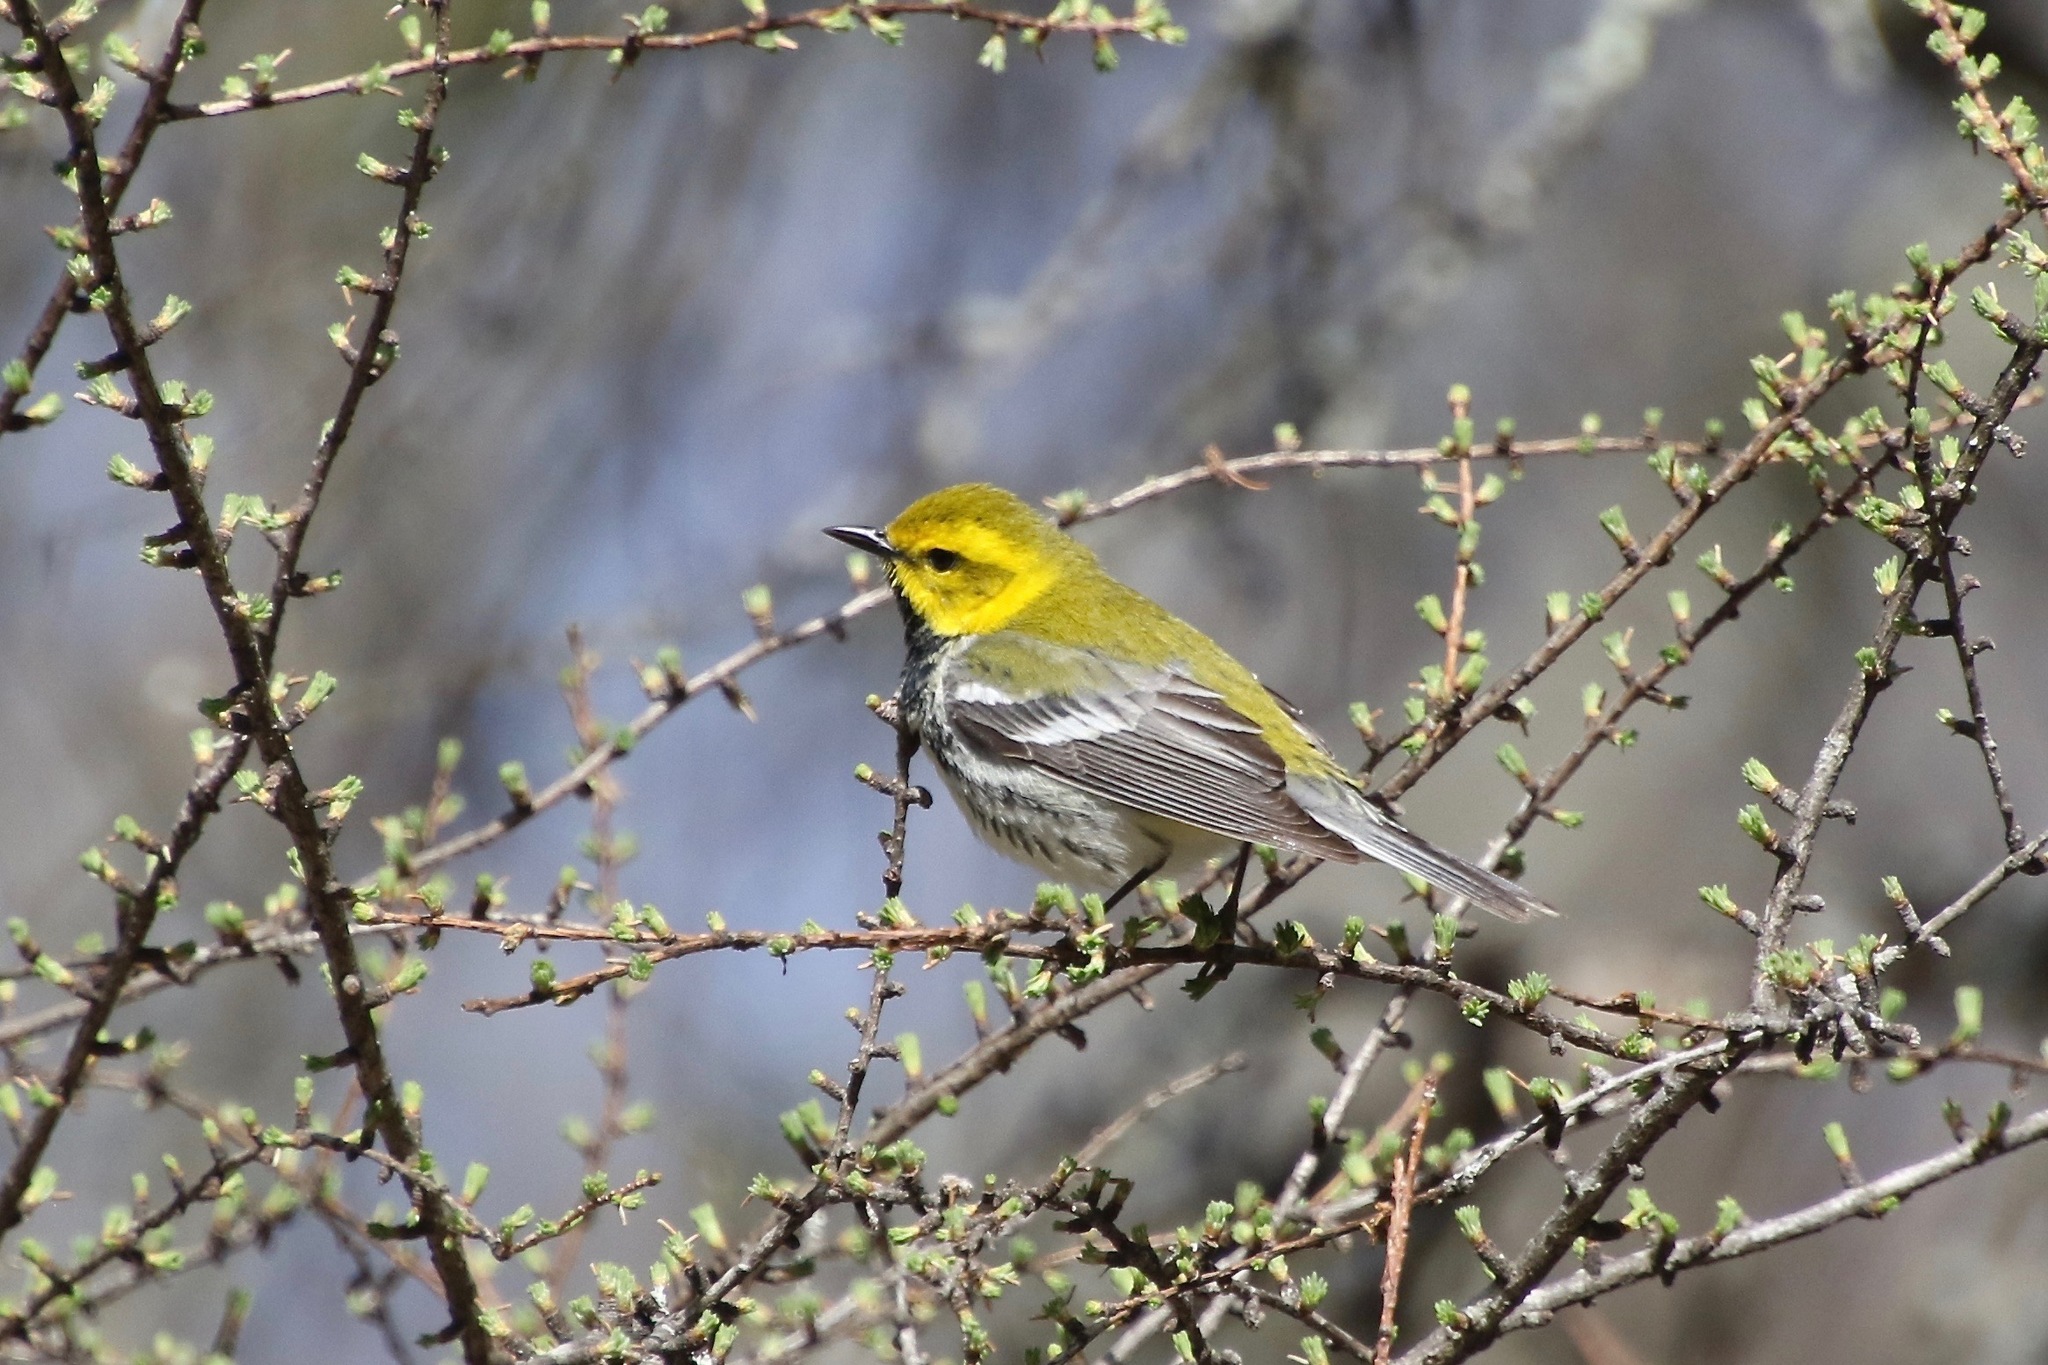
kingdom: Animalia
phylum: Chordata
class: Aves
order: Passeriformes
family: Parulidae
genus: Setophaga
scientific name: Setophaga virens
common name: Black-throated green warbler
